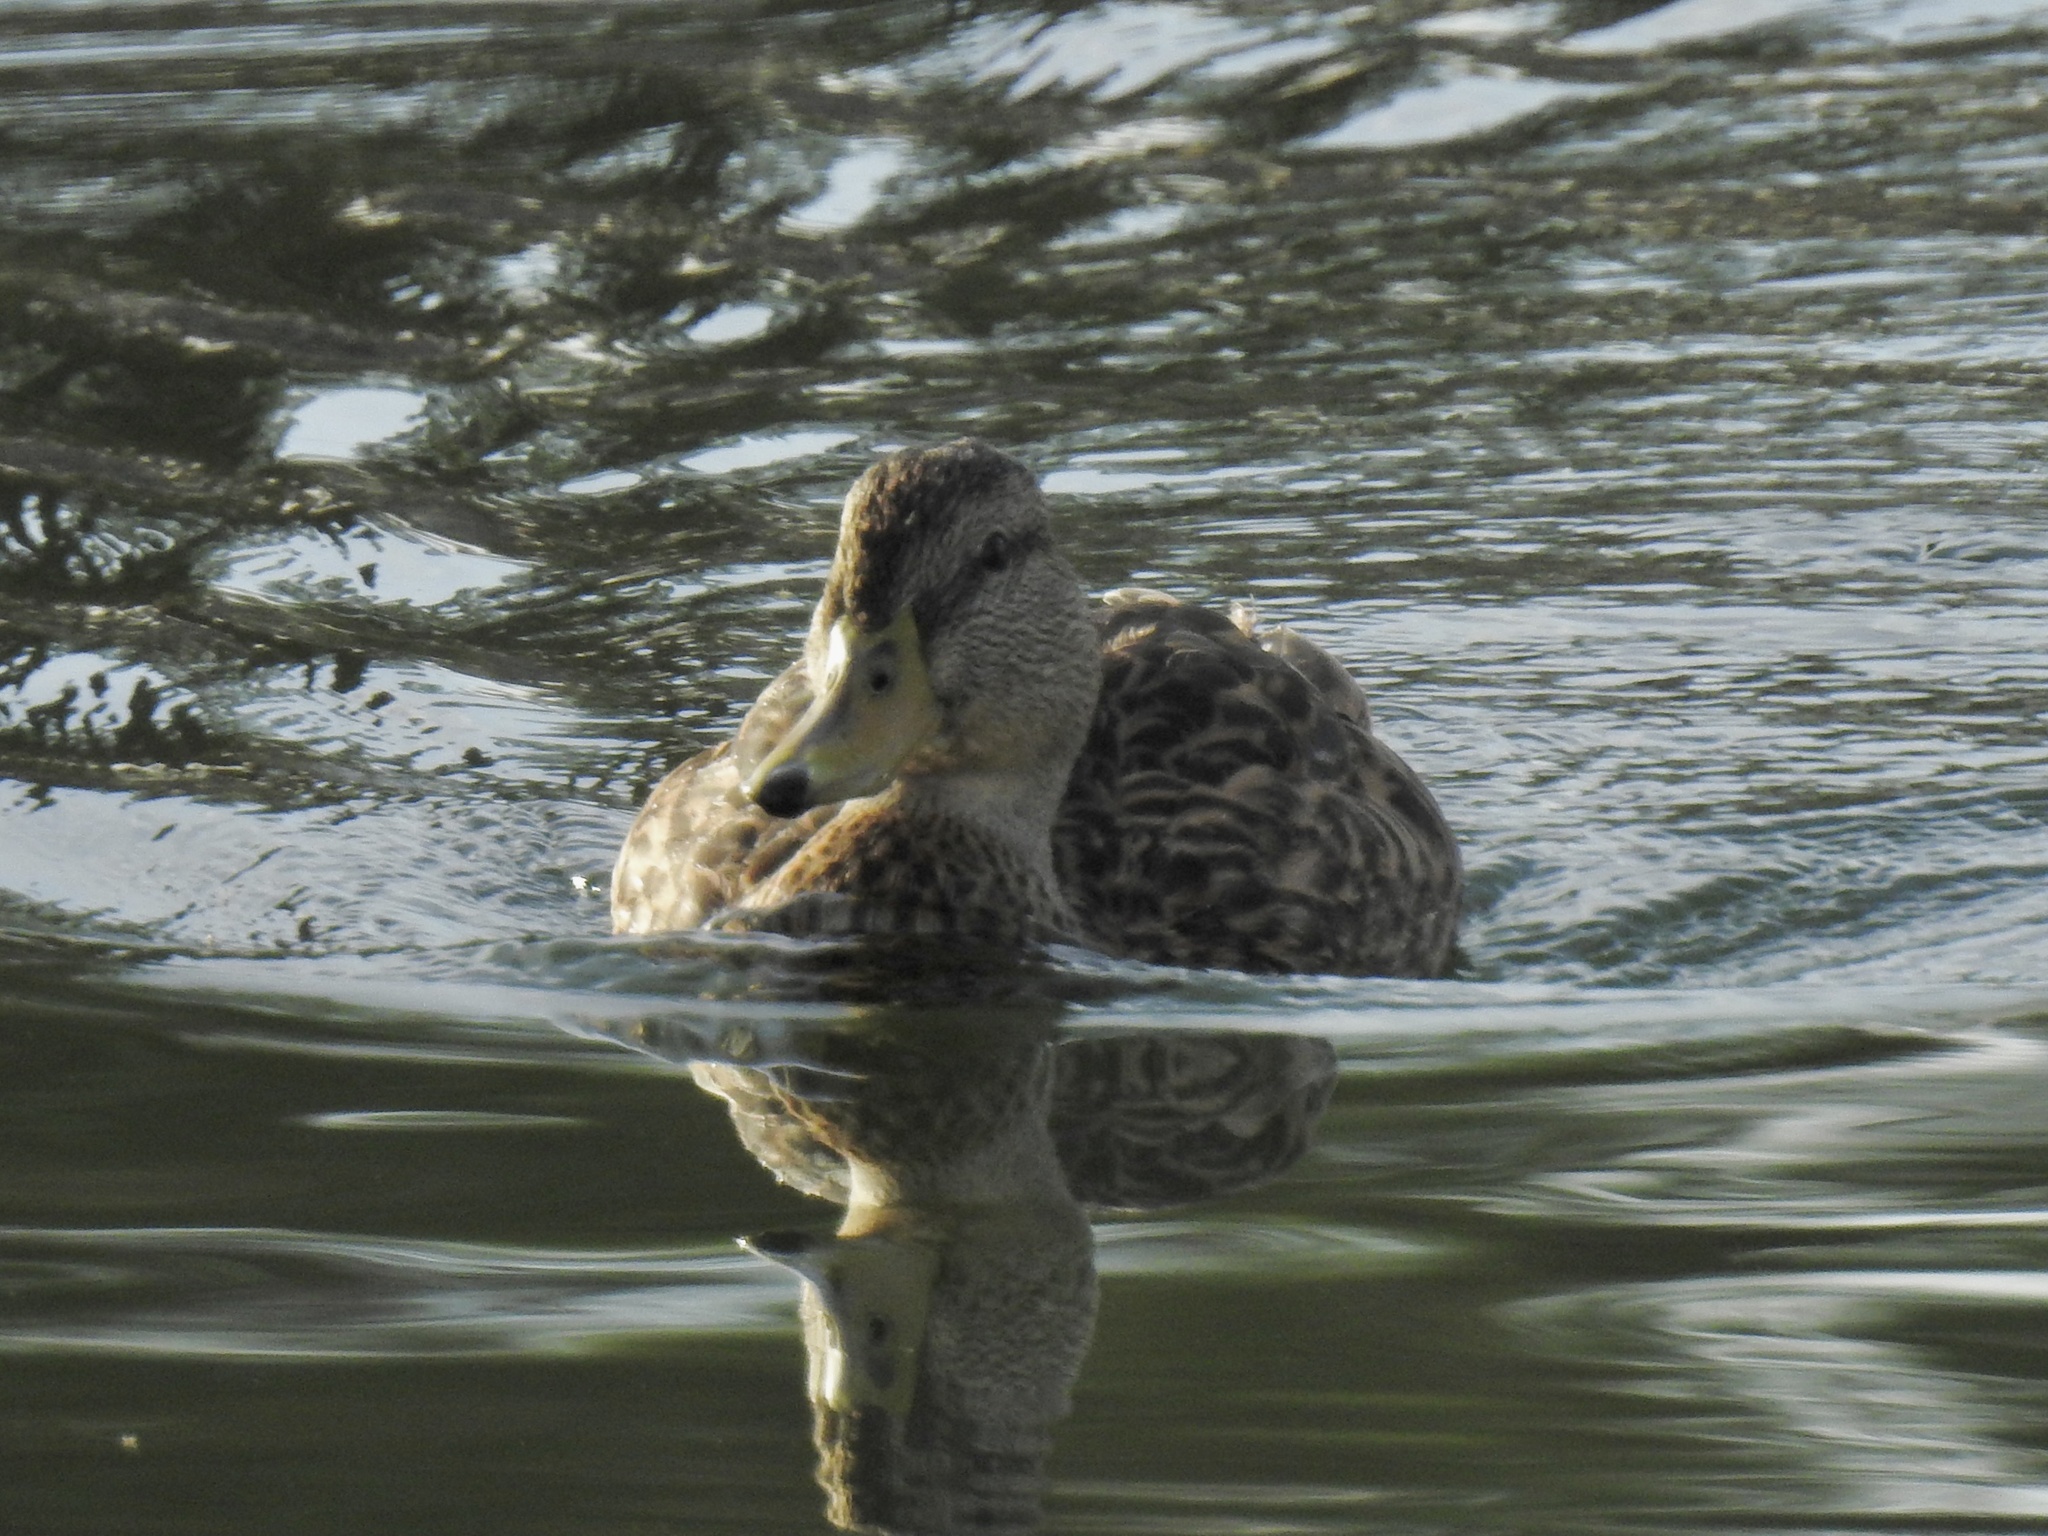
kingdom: Animalia
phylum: Chordata
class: Aves
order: Anseriformes
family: Anatidae
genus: Anas
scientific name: Anas diazi
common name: Mexican duck
